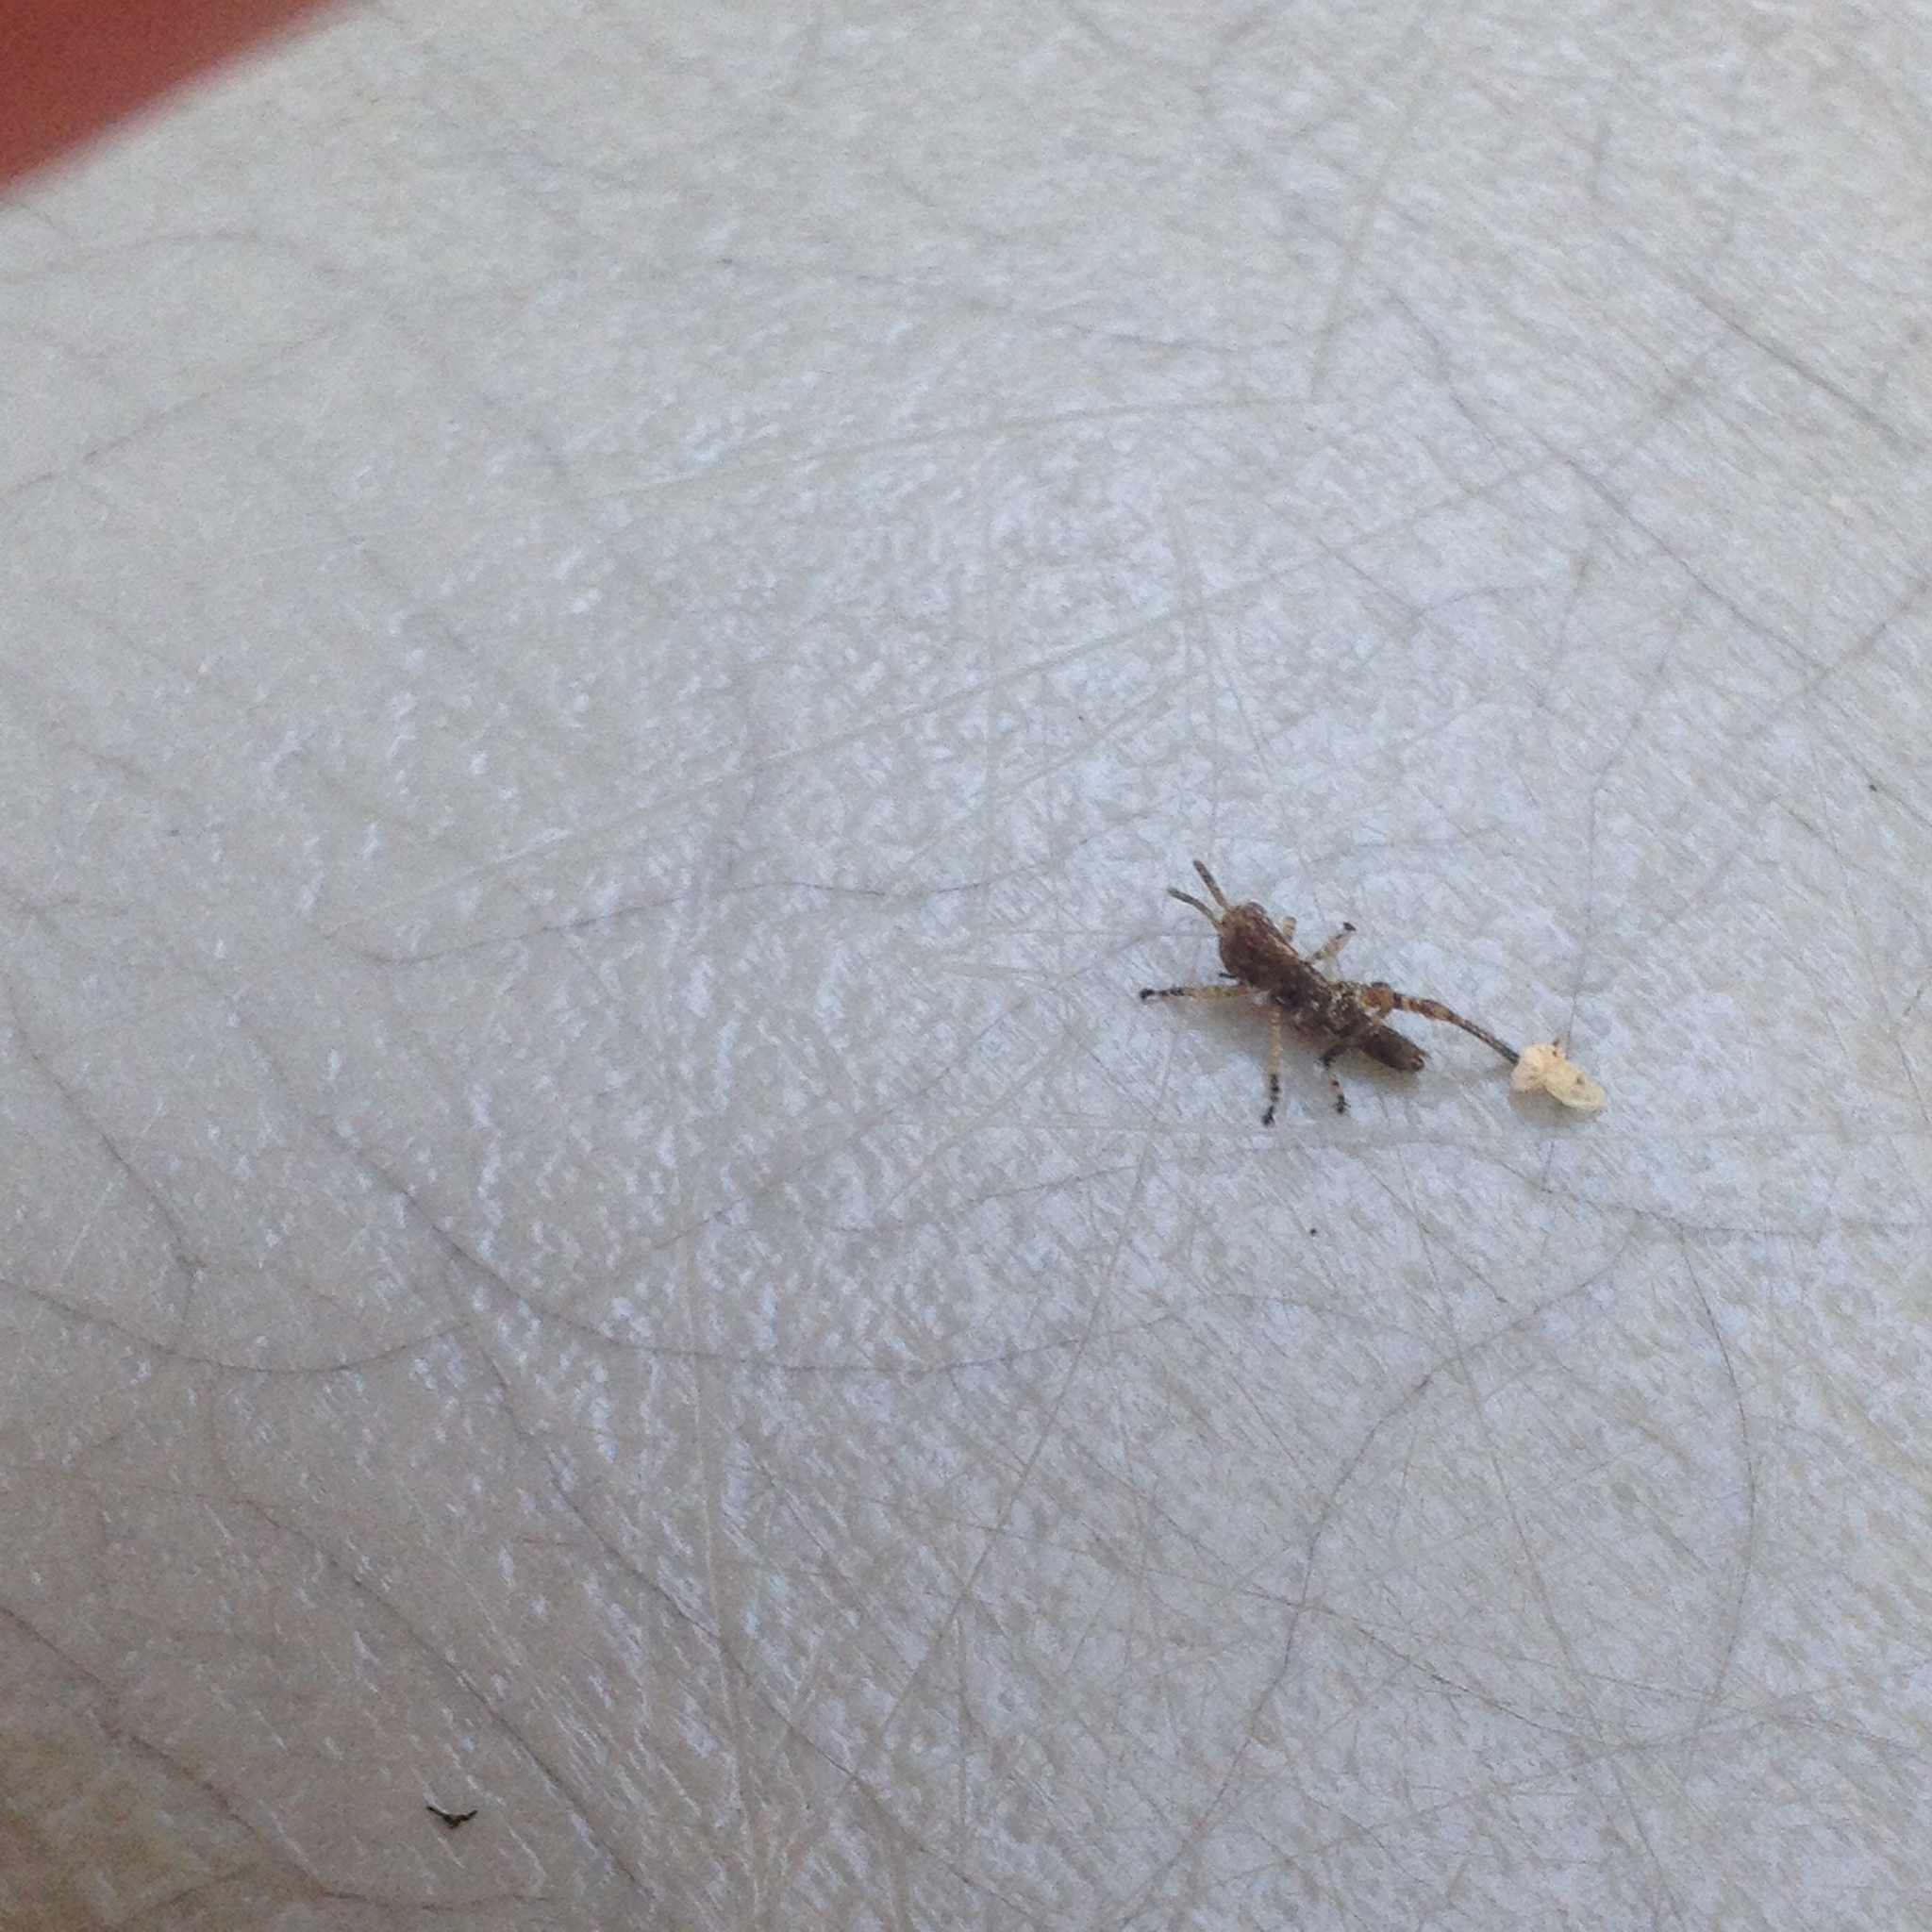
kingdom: Animalia
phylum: Arthropoda
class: Insecta
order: Orthoptera
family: Acrididae
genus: Melanoplus
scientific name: Melanoplus
